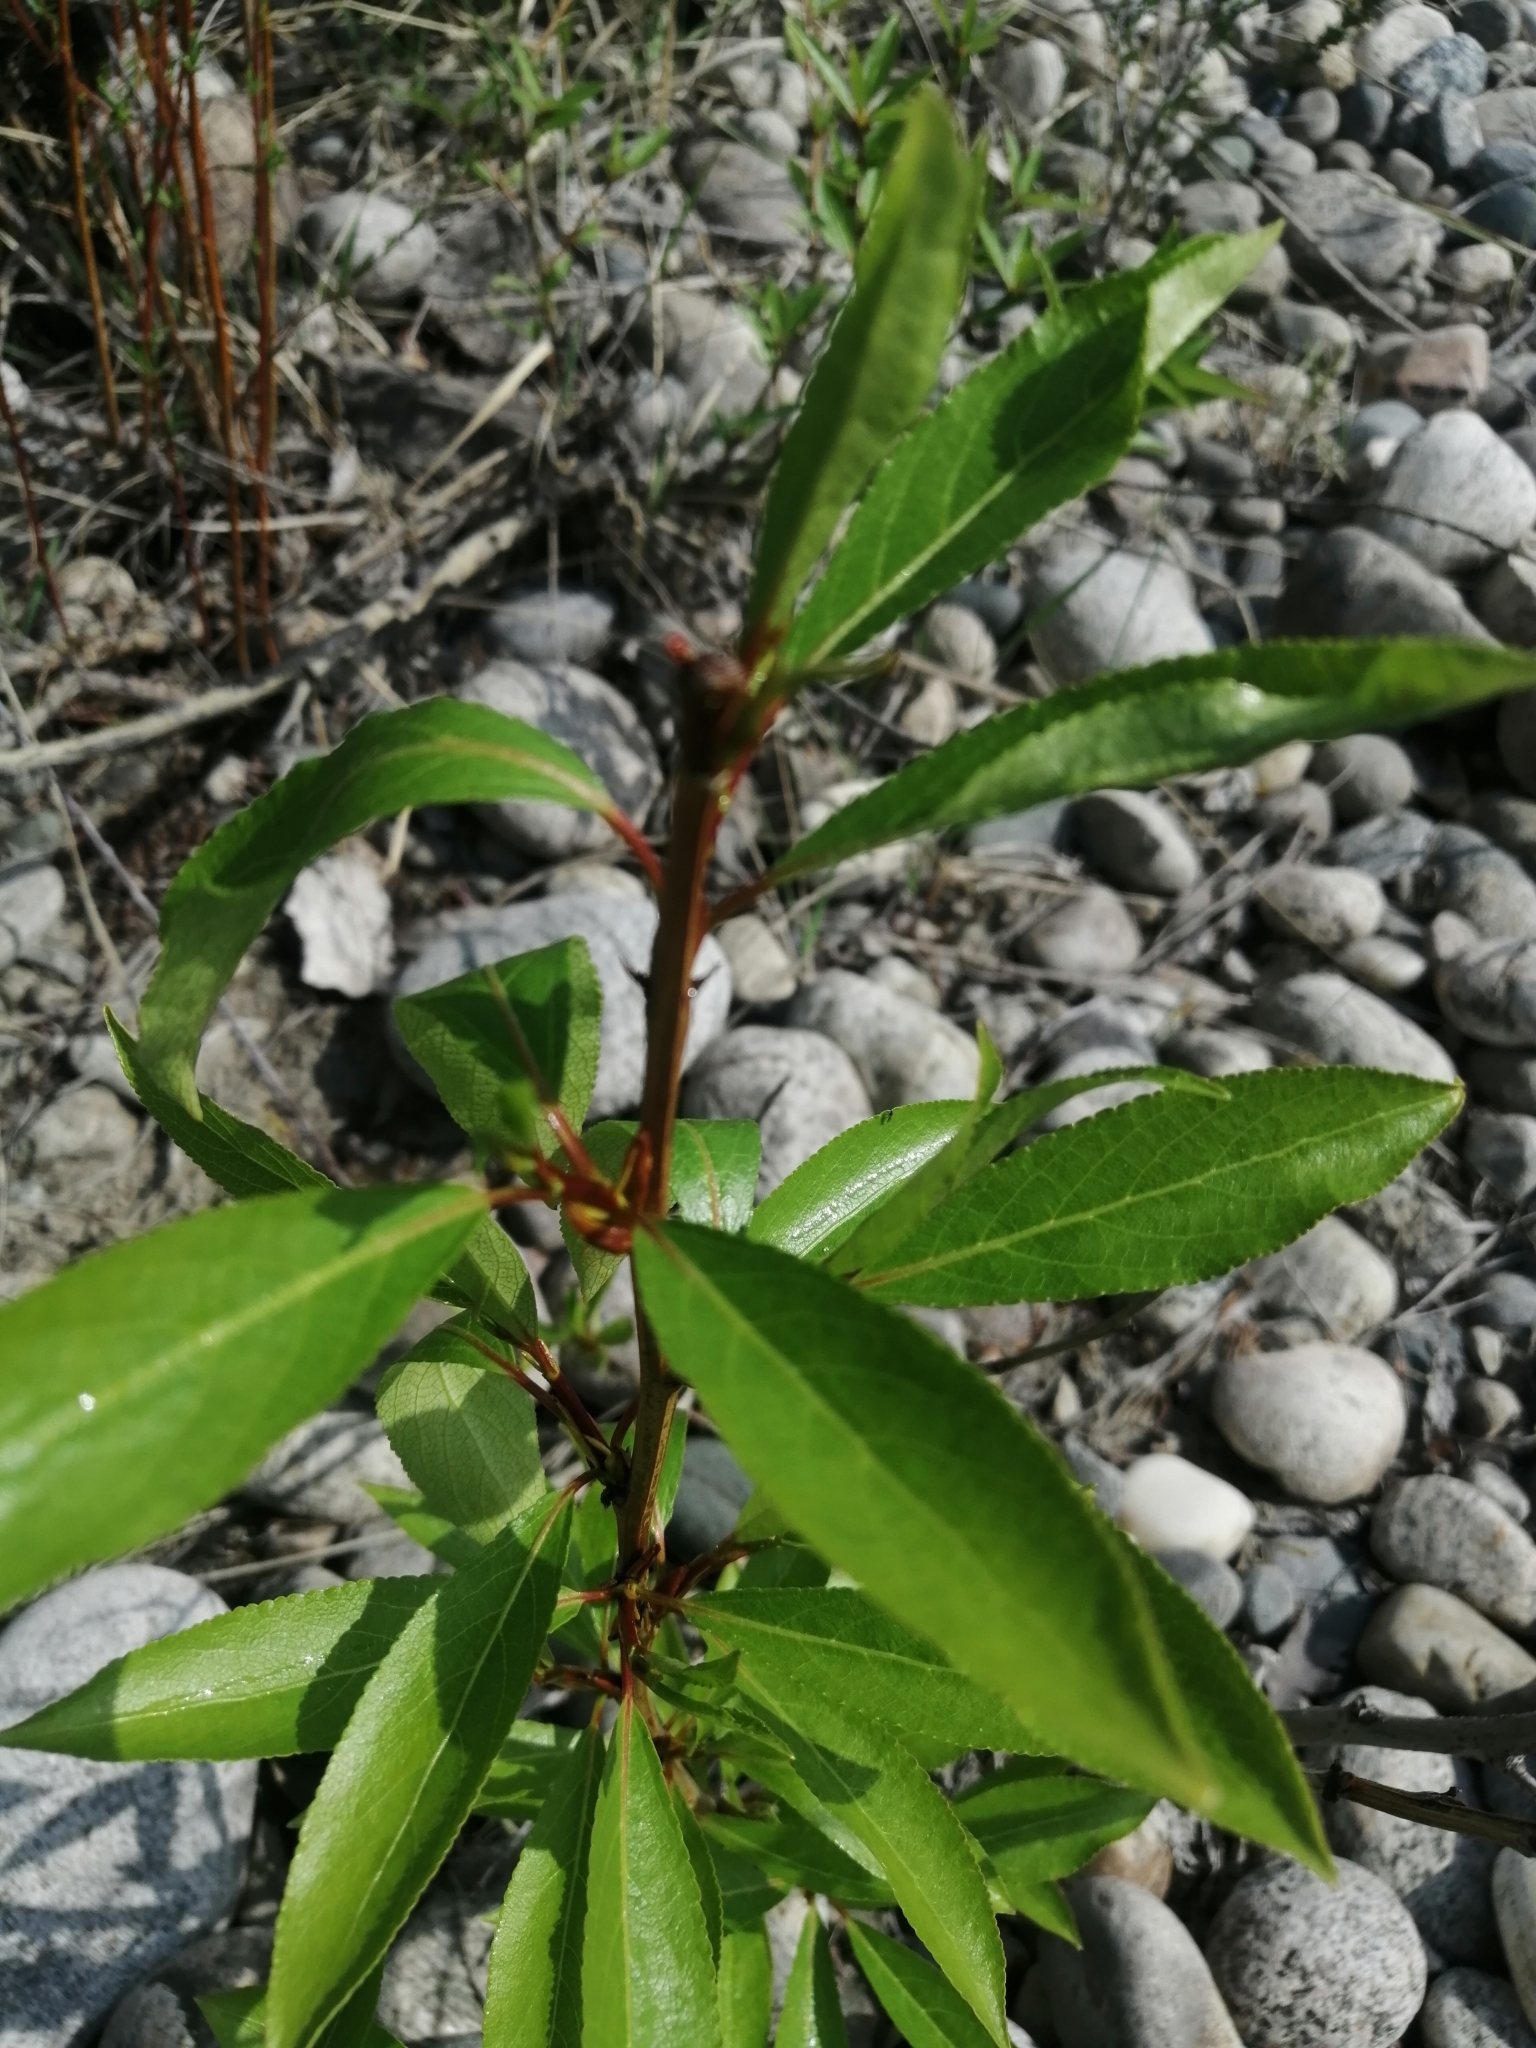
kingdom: Plantae
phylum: Tracheophyta
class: Magnoliopsida
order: Malpighiales
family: Salicaceae
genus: Populus
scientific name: Populus suaveolens
